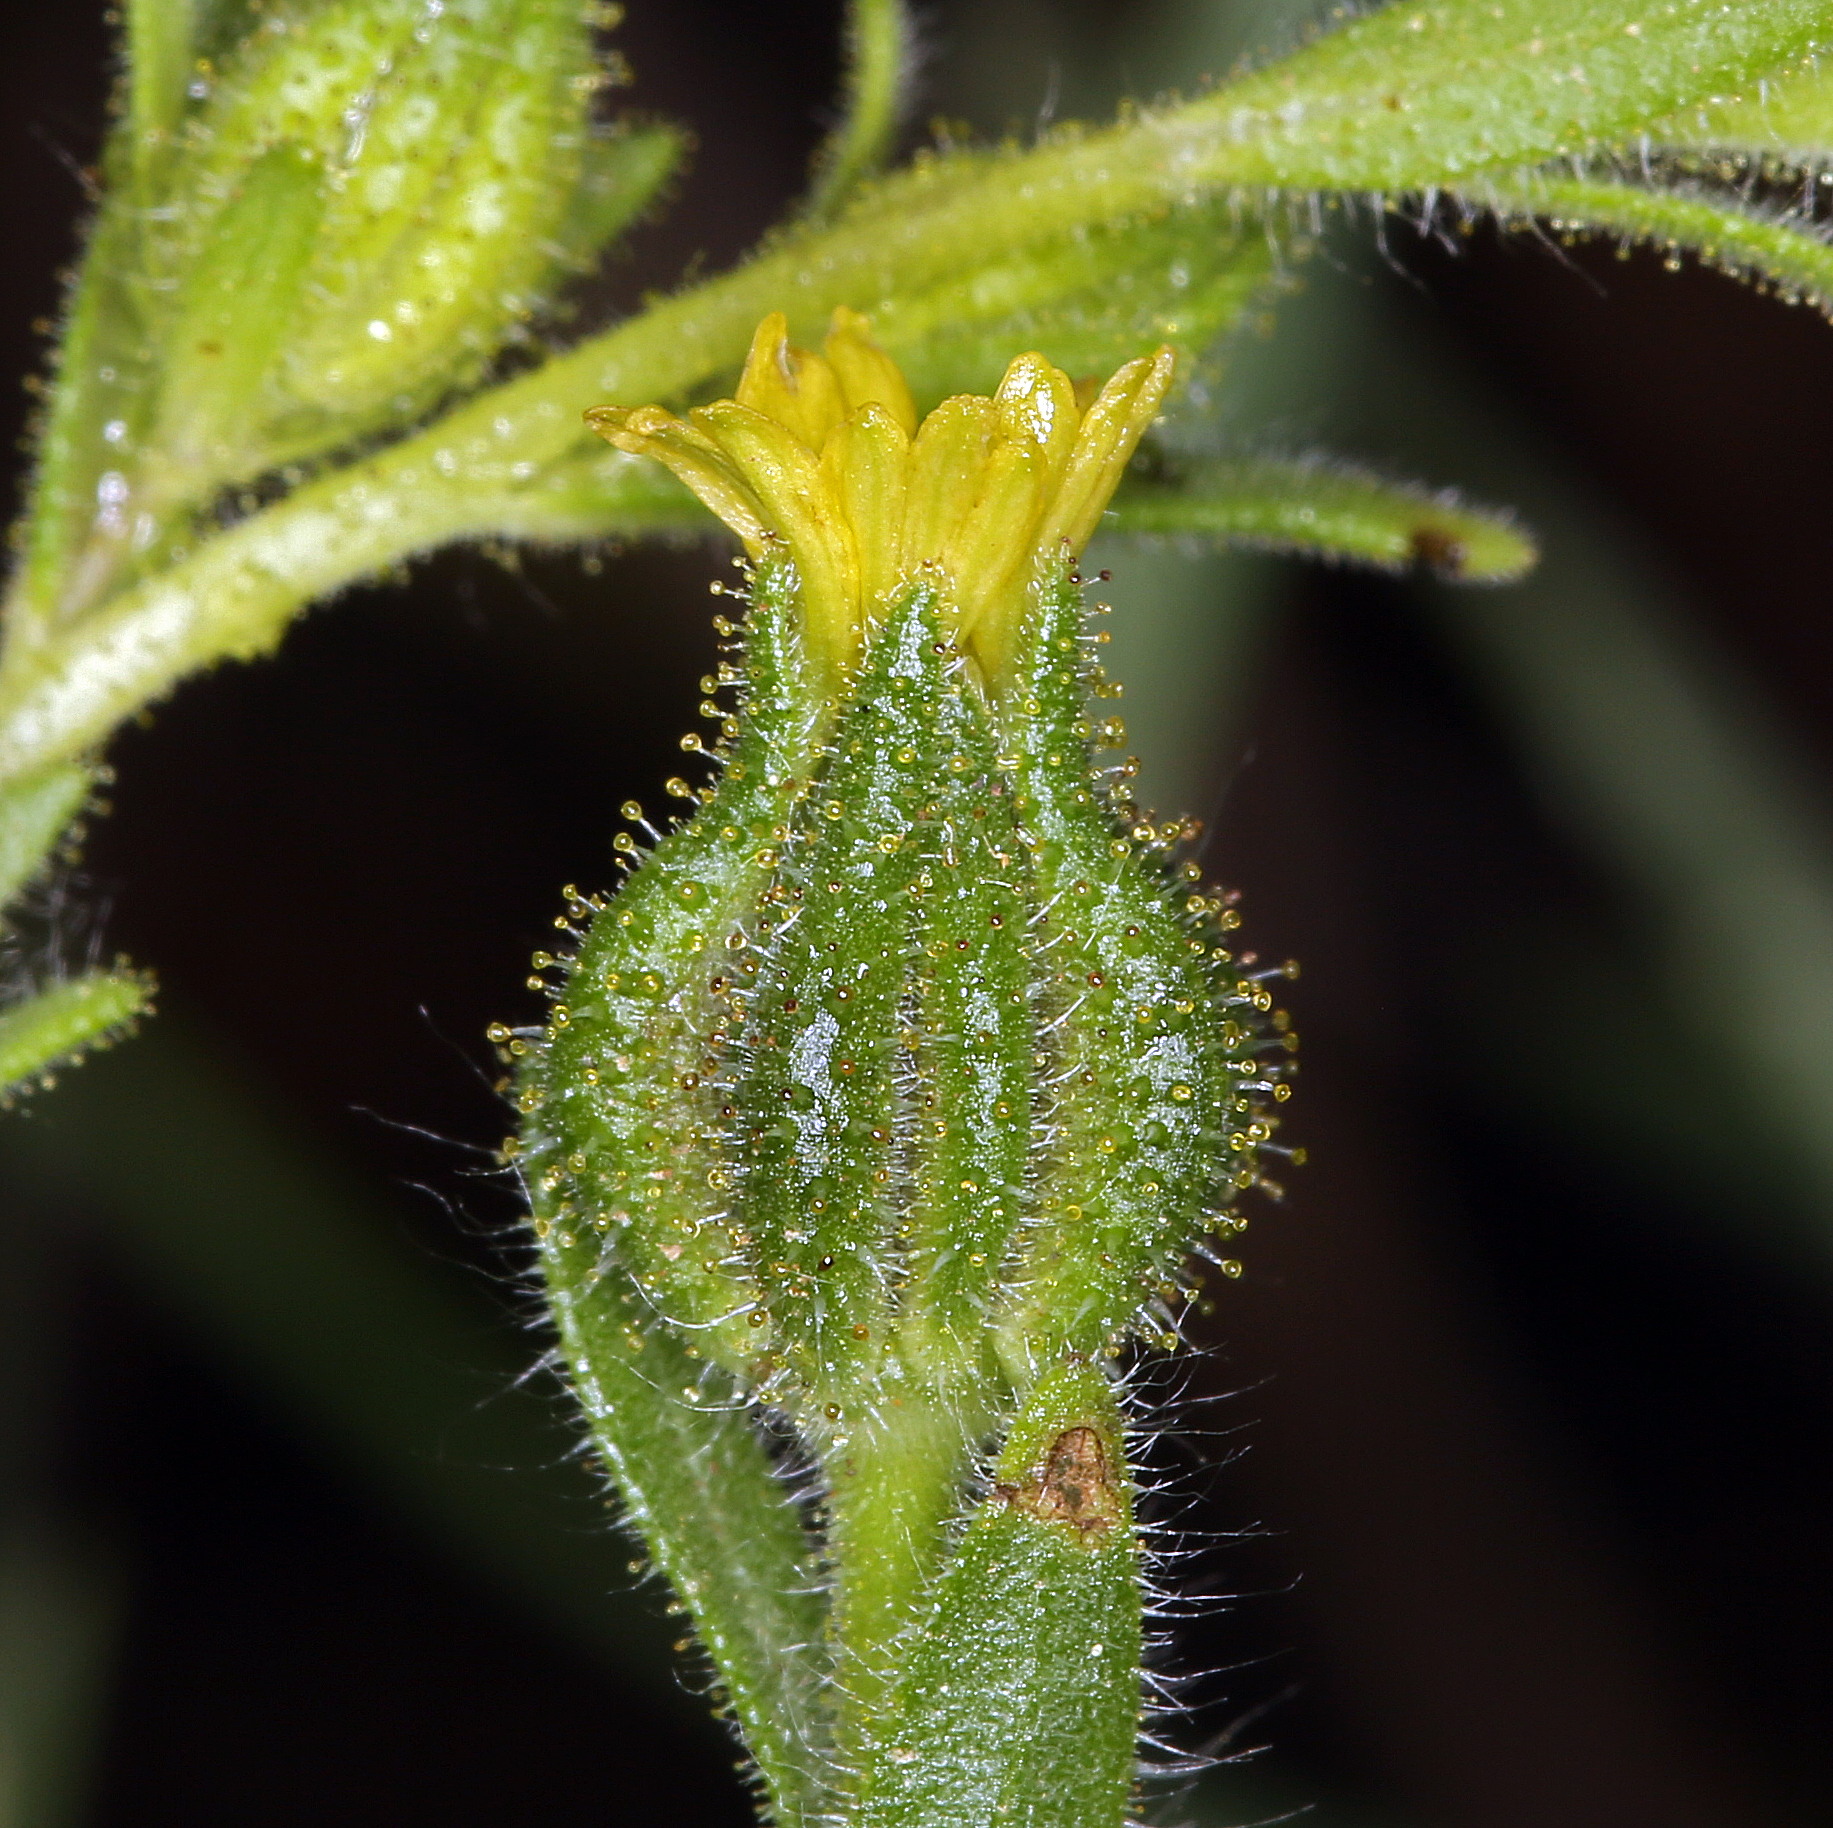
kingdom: Plantae
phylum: Tracheophyta
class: Magnoliopsida
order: Asterales
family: Asteraceae
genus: Madia
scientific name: Madia subspicata
